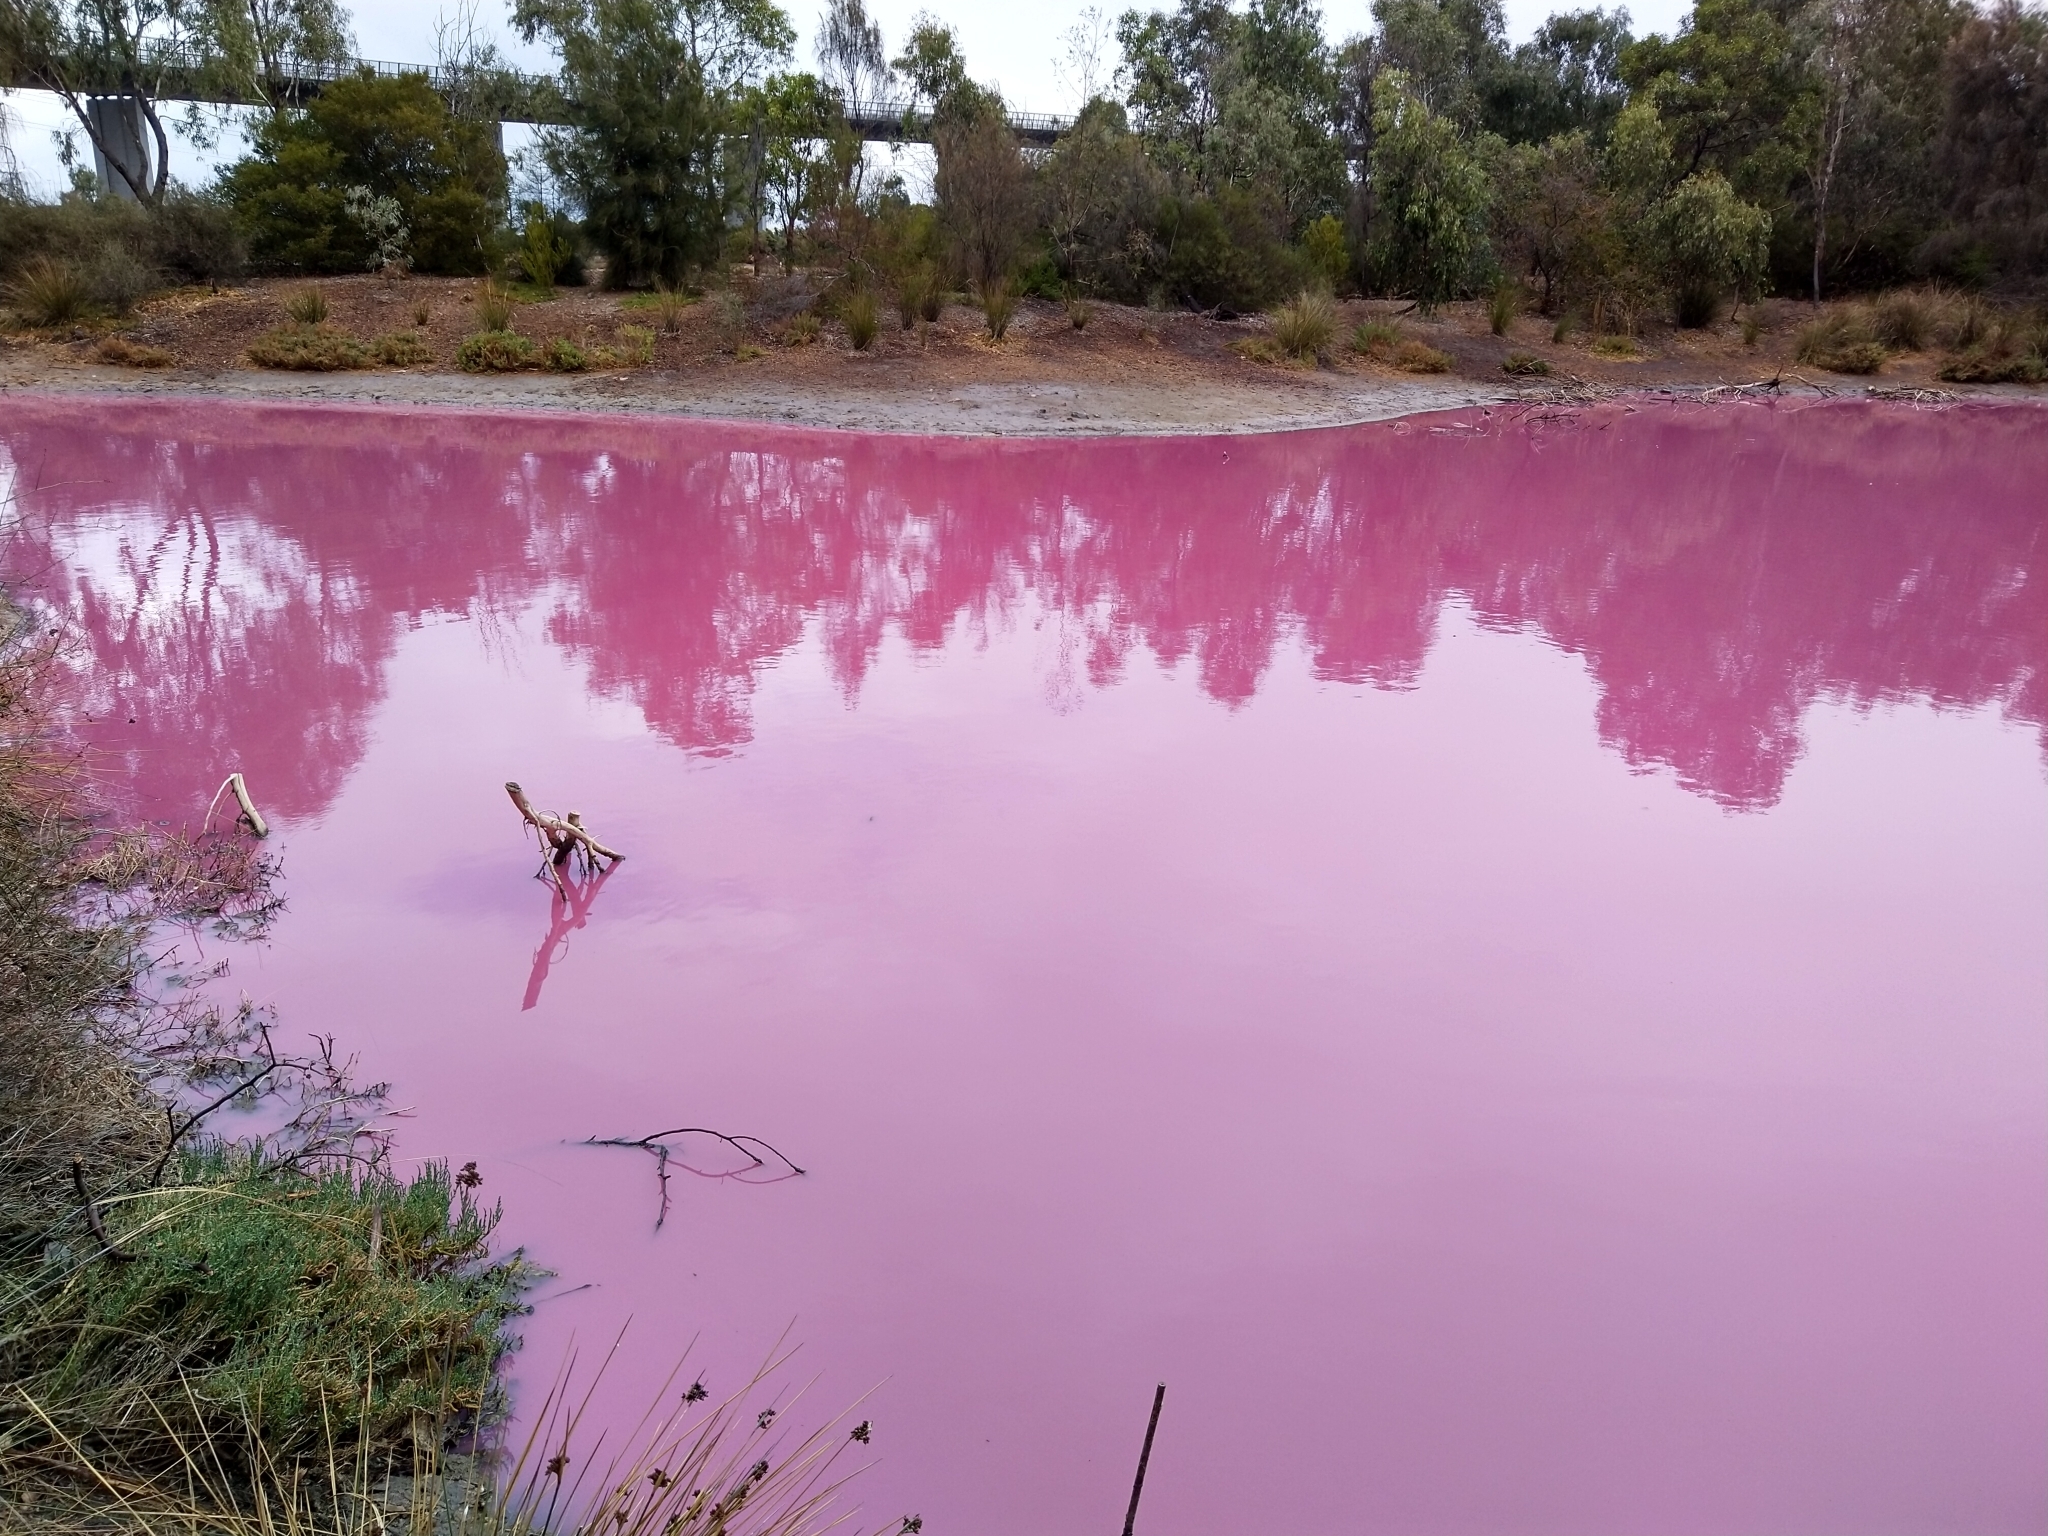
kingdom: Plantae
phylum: Chlorophyta
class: Chlorophyceae
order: Volvocales
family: Dunaliellaceae
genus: Dunaliella
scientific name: Dunaliella salina
